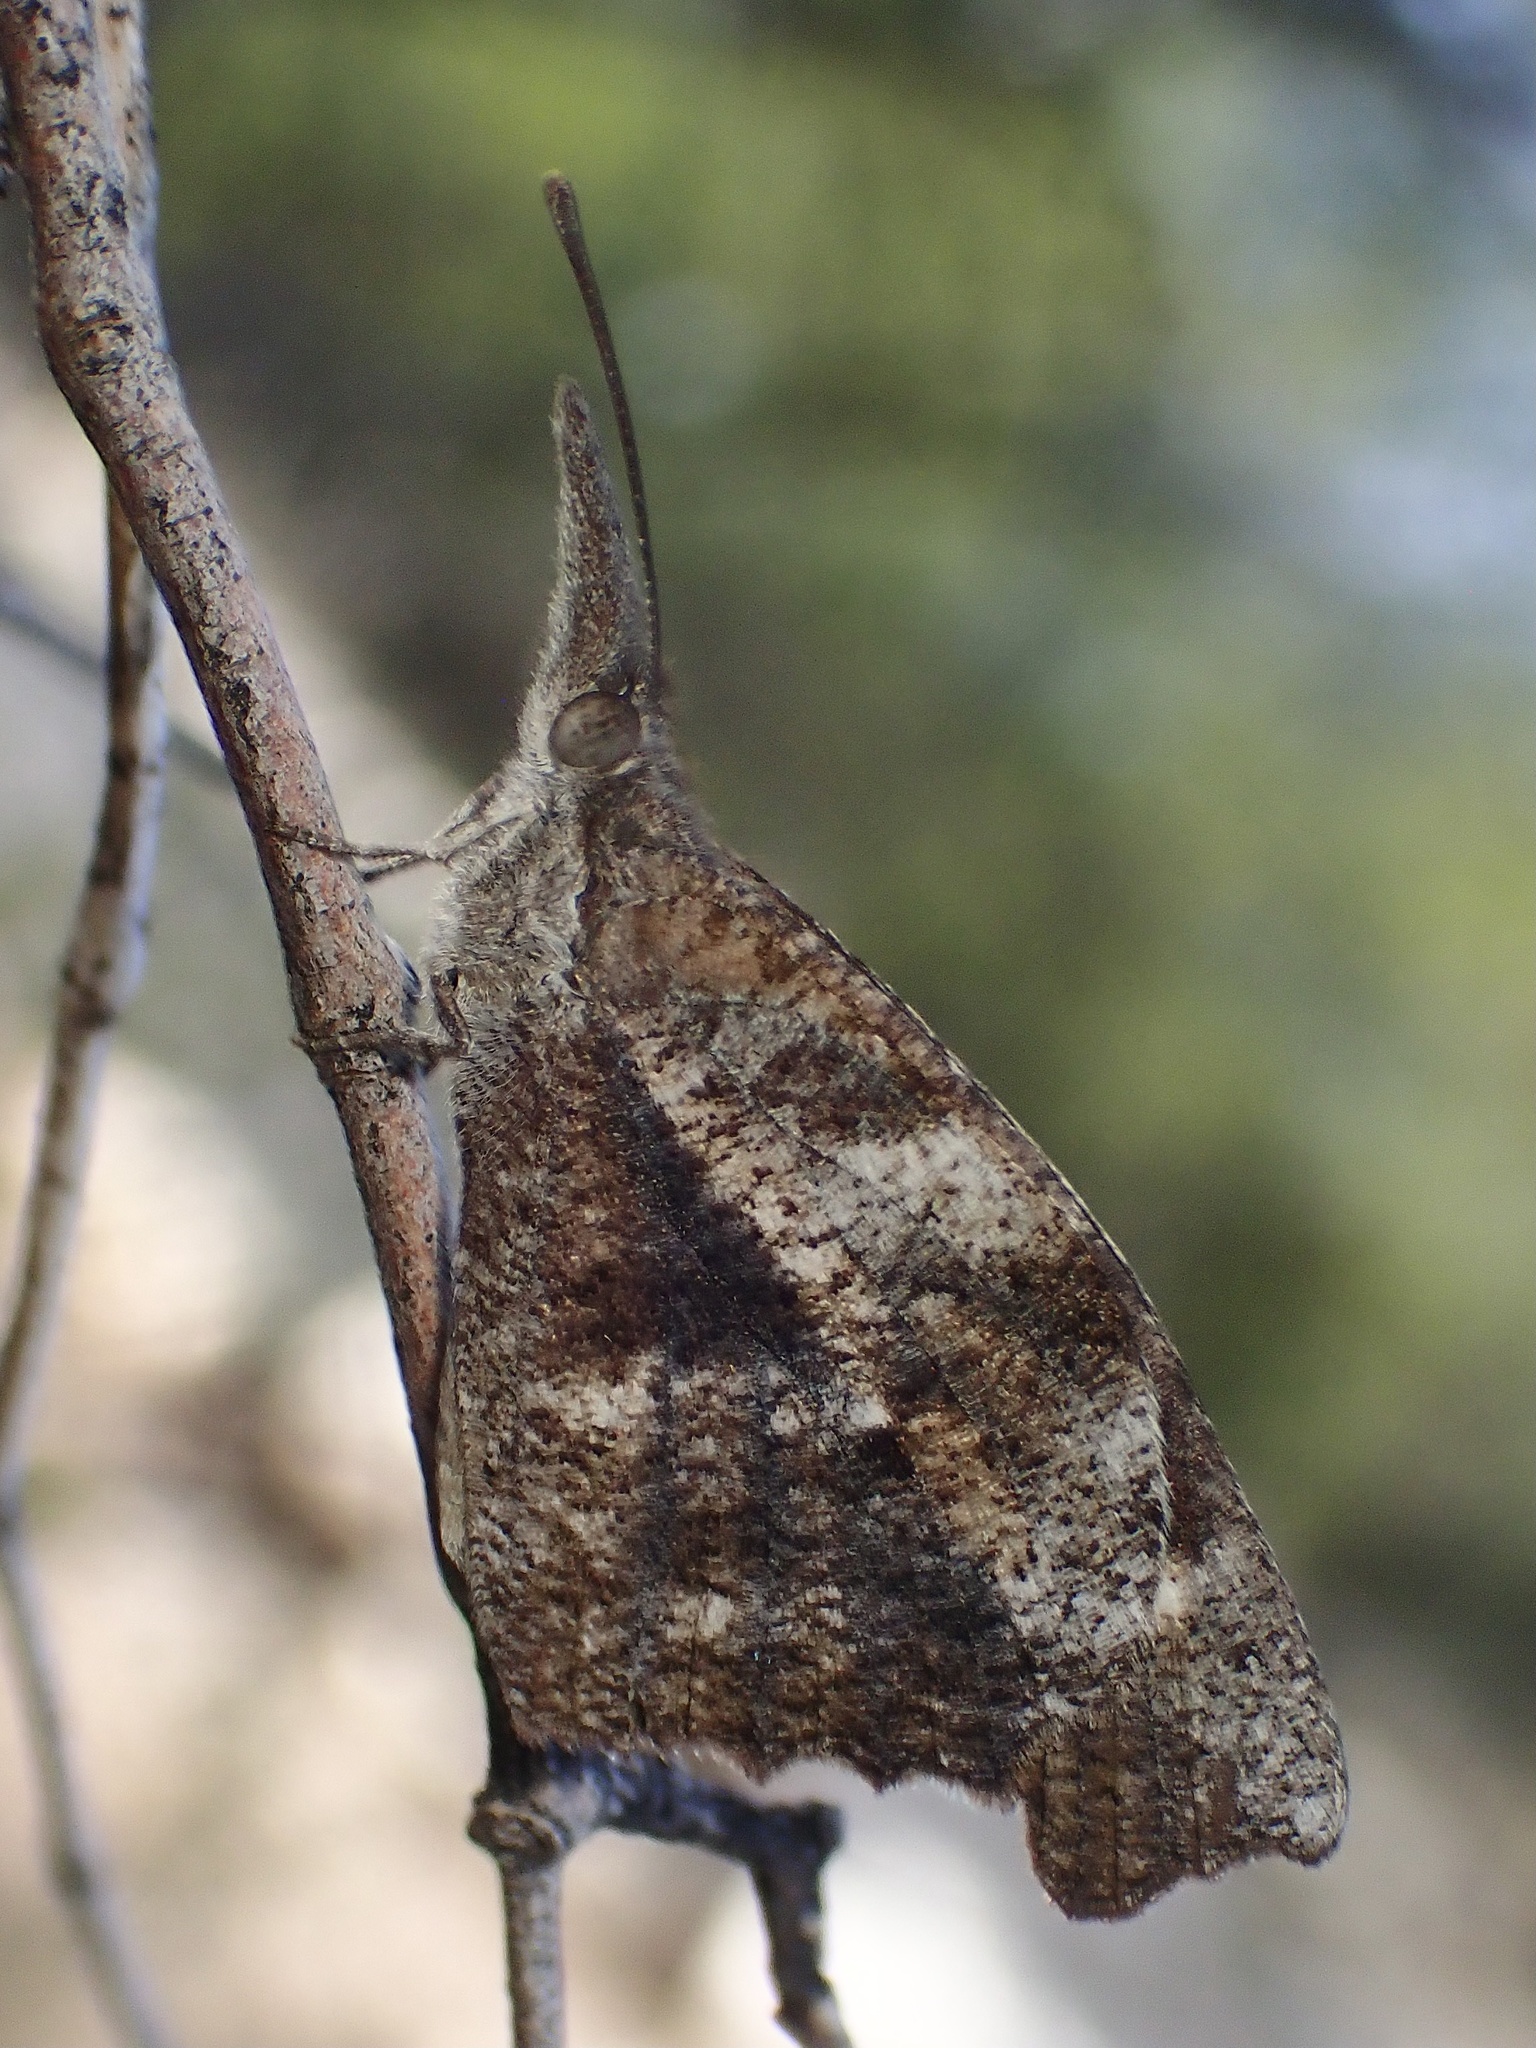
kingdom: Animalia
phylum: Arthropoda
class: Insecta
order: Lepidoptera
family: Nymphalidae
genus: Libytheana
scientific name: Libytheana carinenta
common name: American snout
